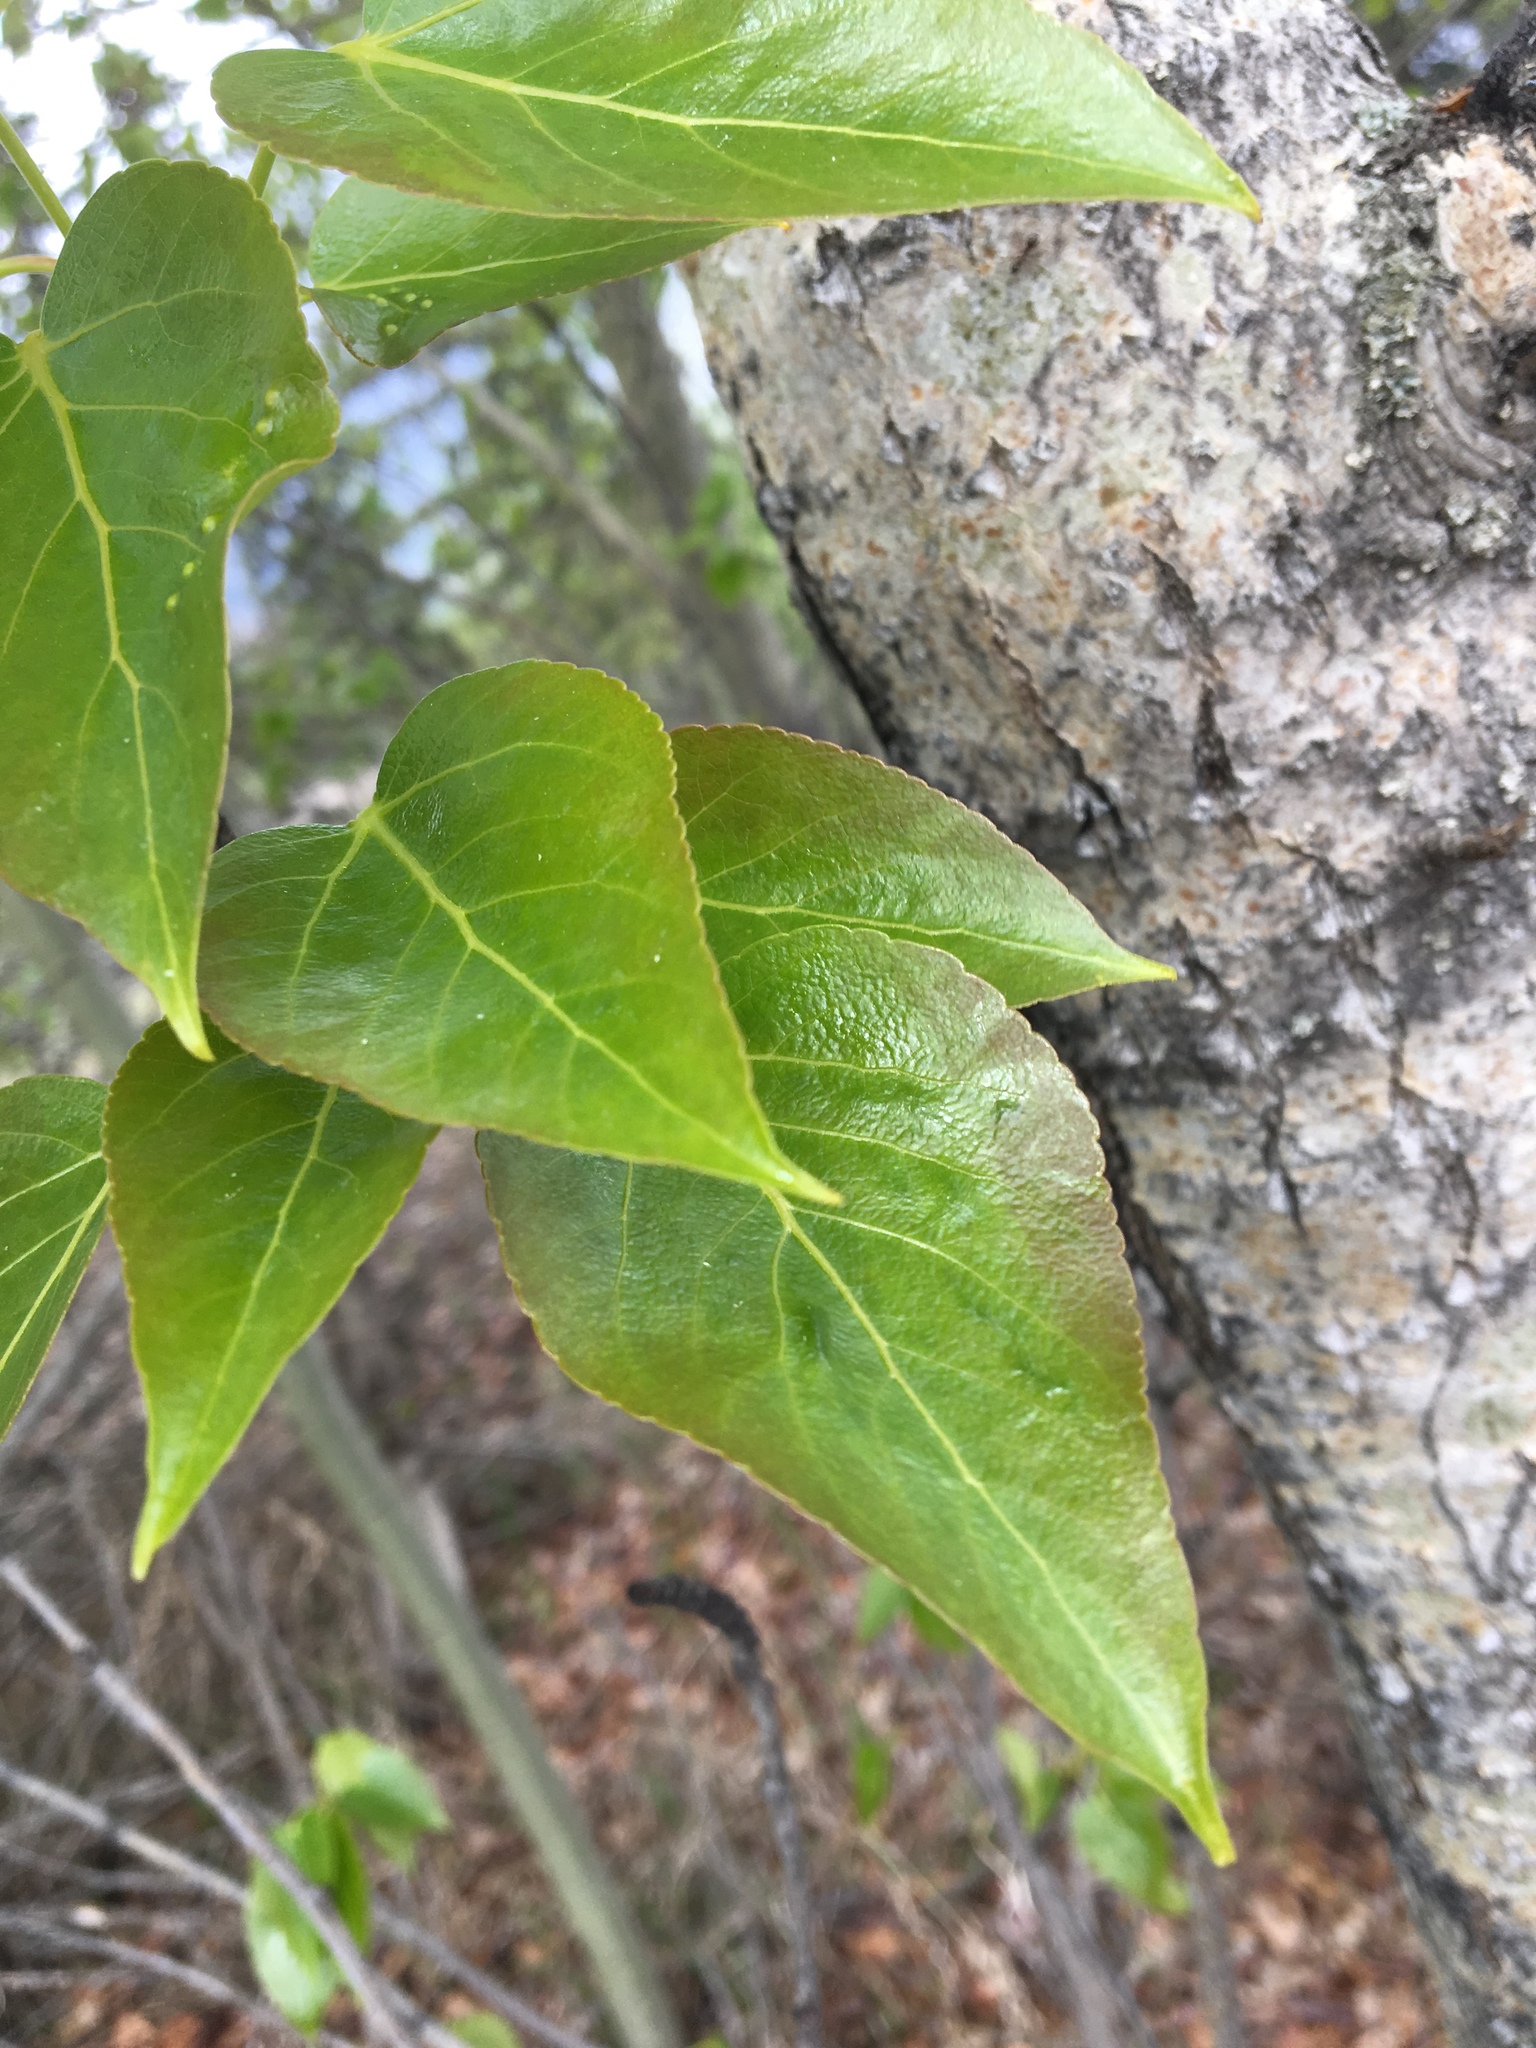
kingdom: Plantae
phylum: Tracheophyta
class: Magnoliopsida
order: Malpighiales
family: Salicaceae
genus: Populus
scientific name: Populus balsamifera
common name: Balsam poplar
